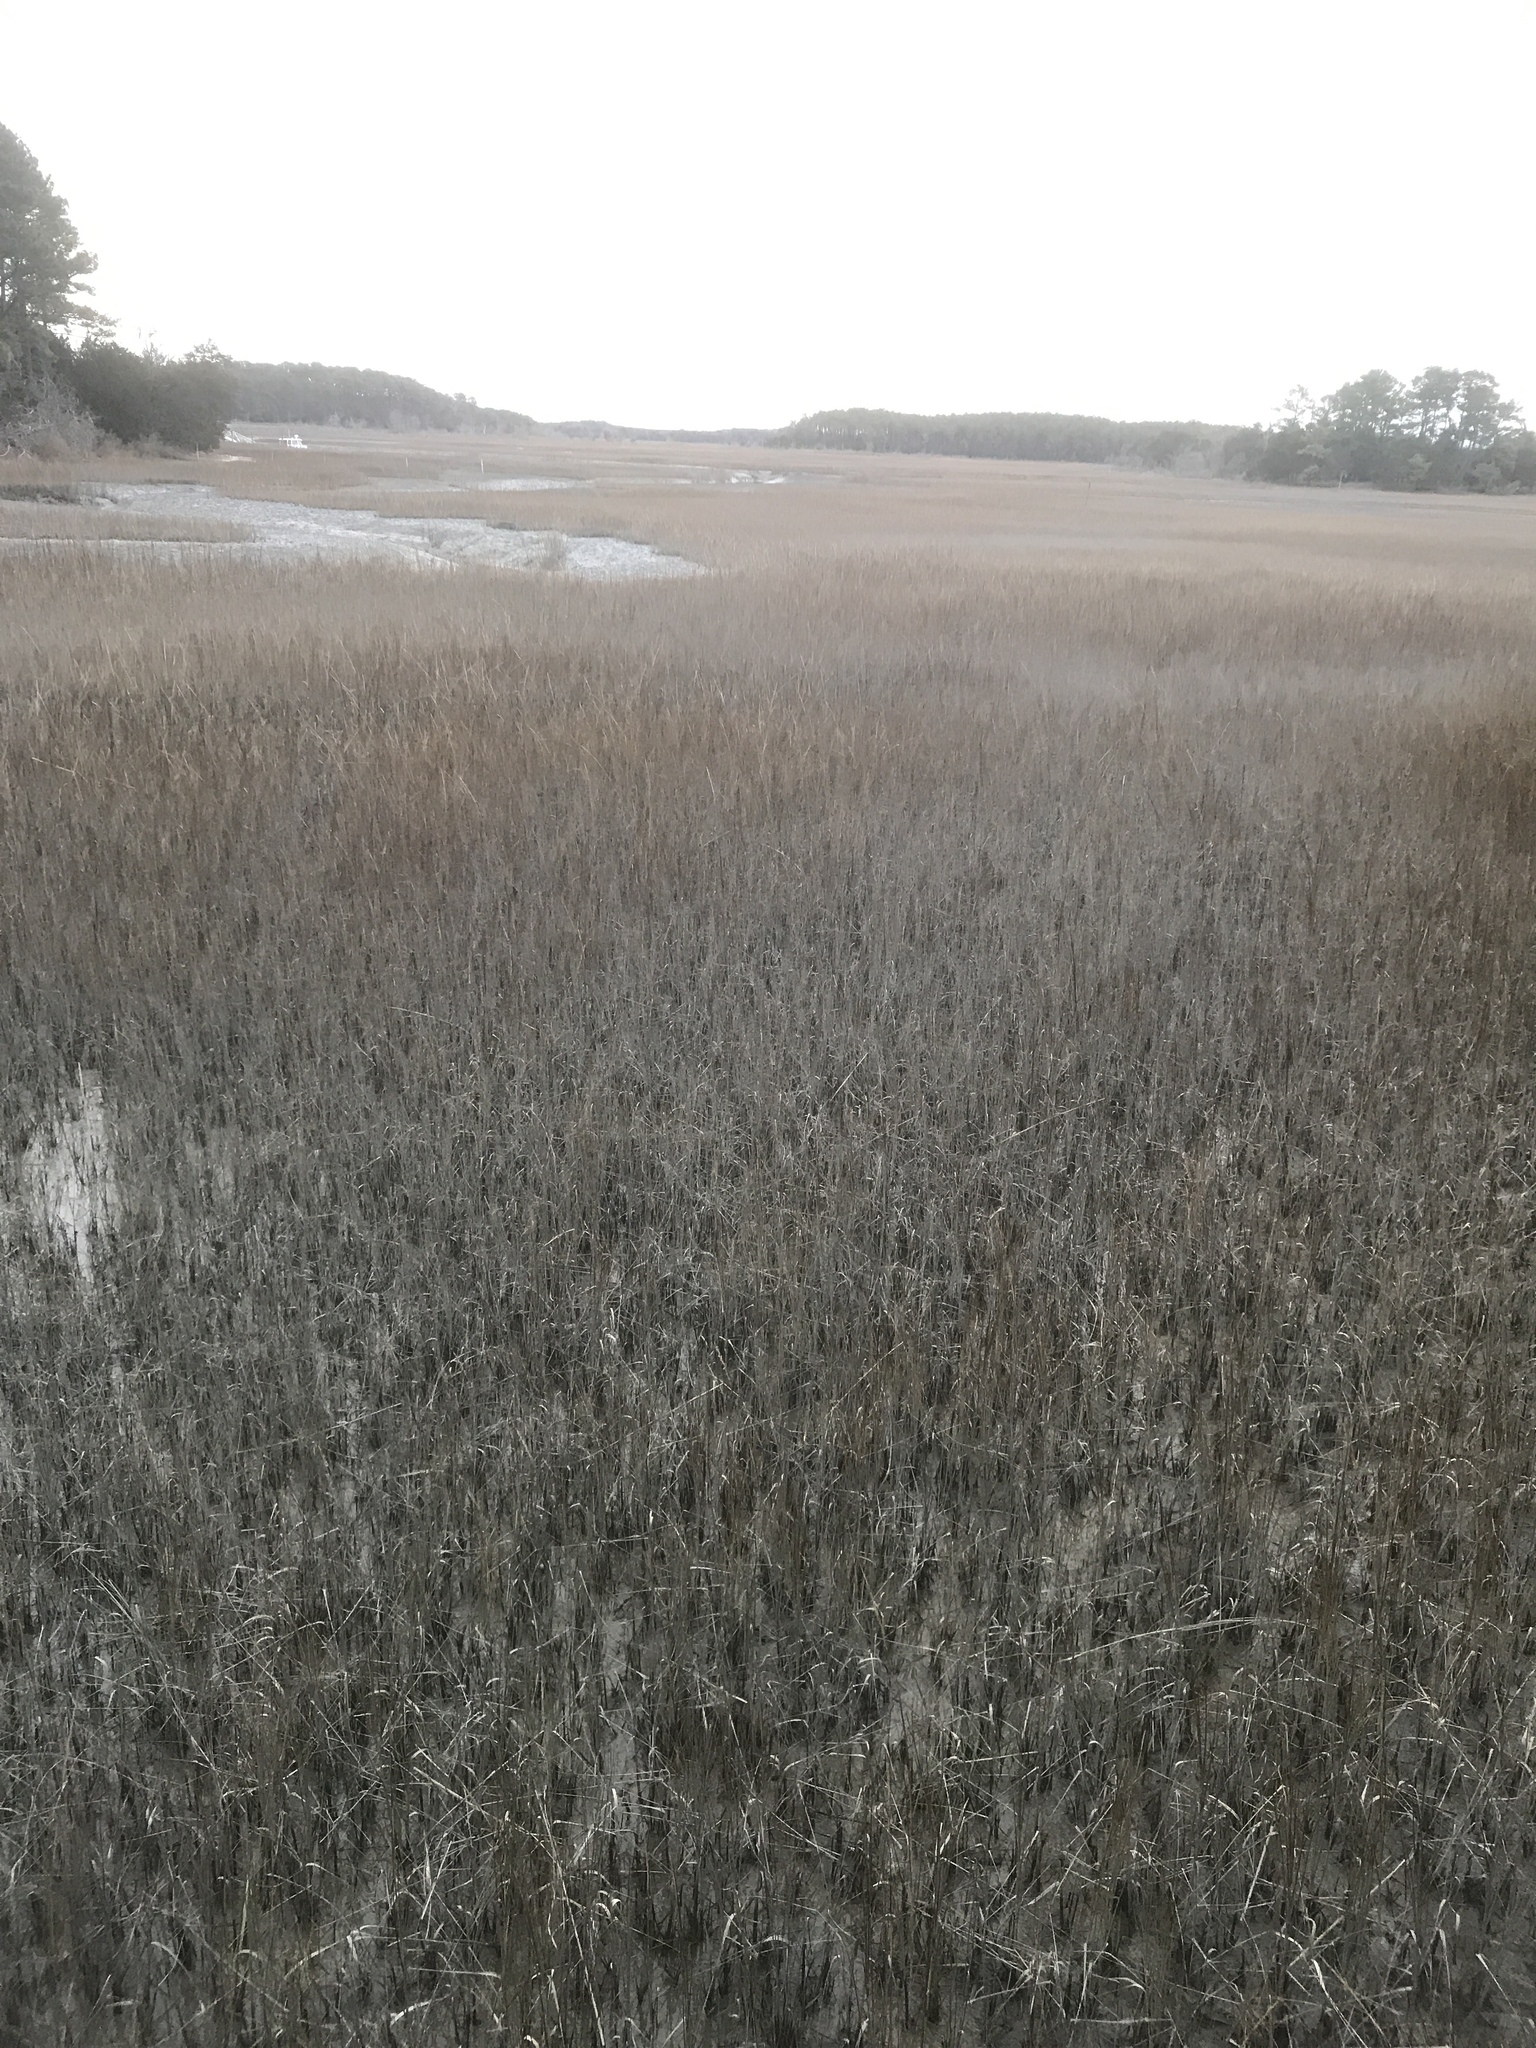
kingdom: Plantae
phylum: Tracheophyta
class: Liliopsida
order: Poales
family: Poaceae
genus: Sporobolus
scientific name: Sporobolus alterniflorus
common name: Atlantic cordgrass
